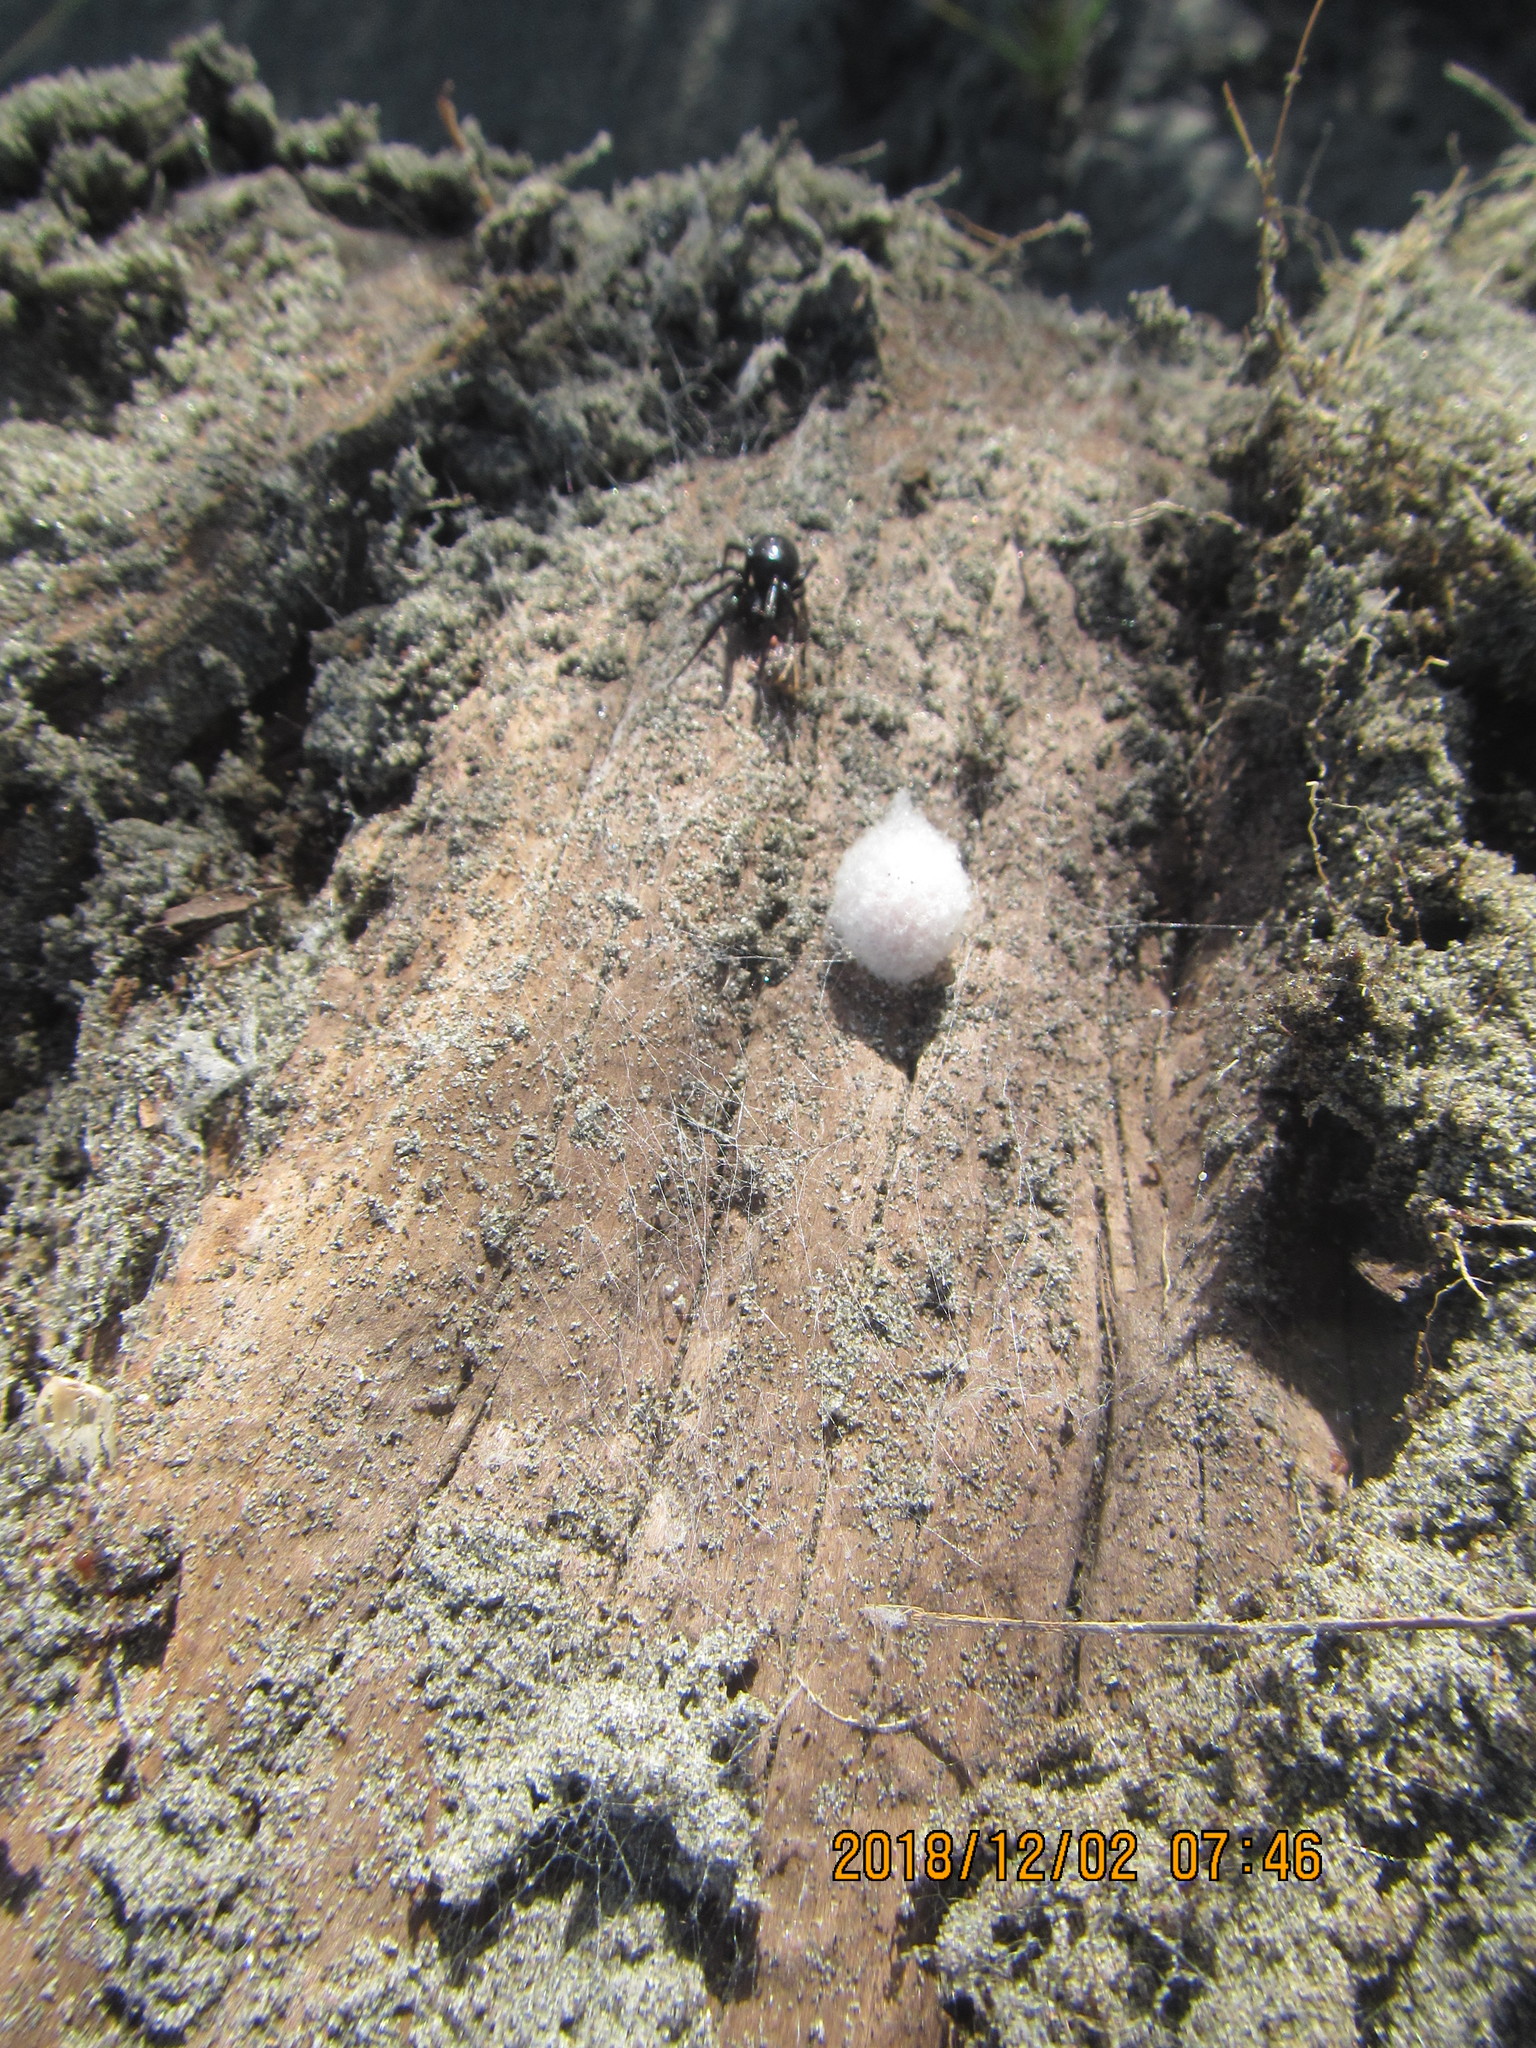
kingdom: Animalia
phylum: Arthropoda
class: Arachnida
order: Araneae
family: Theridiidae
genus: Steatoda
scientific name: Steatoda capensis
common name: Cobweb weaver
